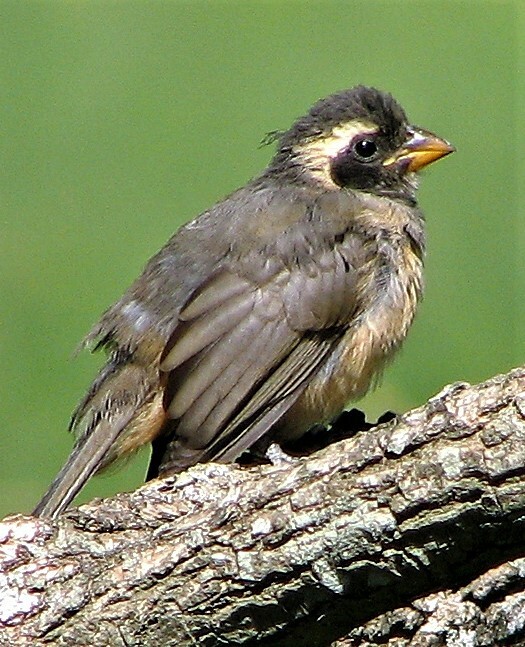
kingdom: Animalia
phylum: Chordata
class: Aves
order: Passeriformes
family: Thraupidae
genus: Saltator
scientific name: Saltator aurantiirostris
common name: Golden-billed saltator
